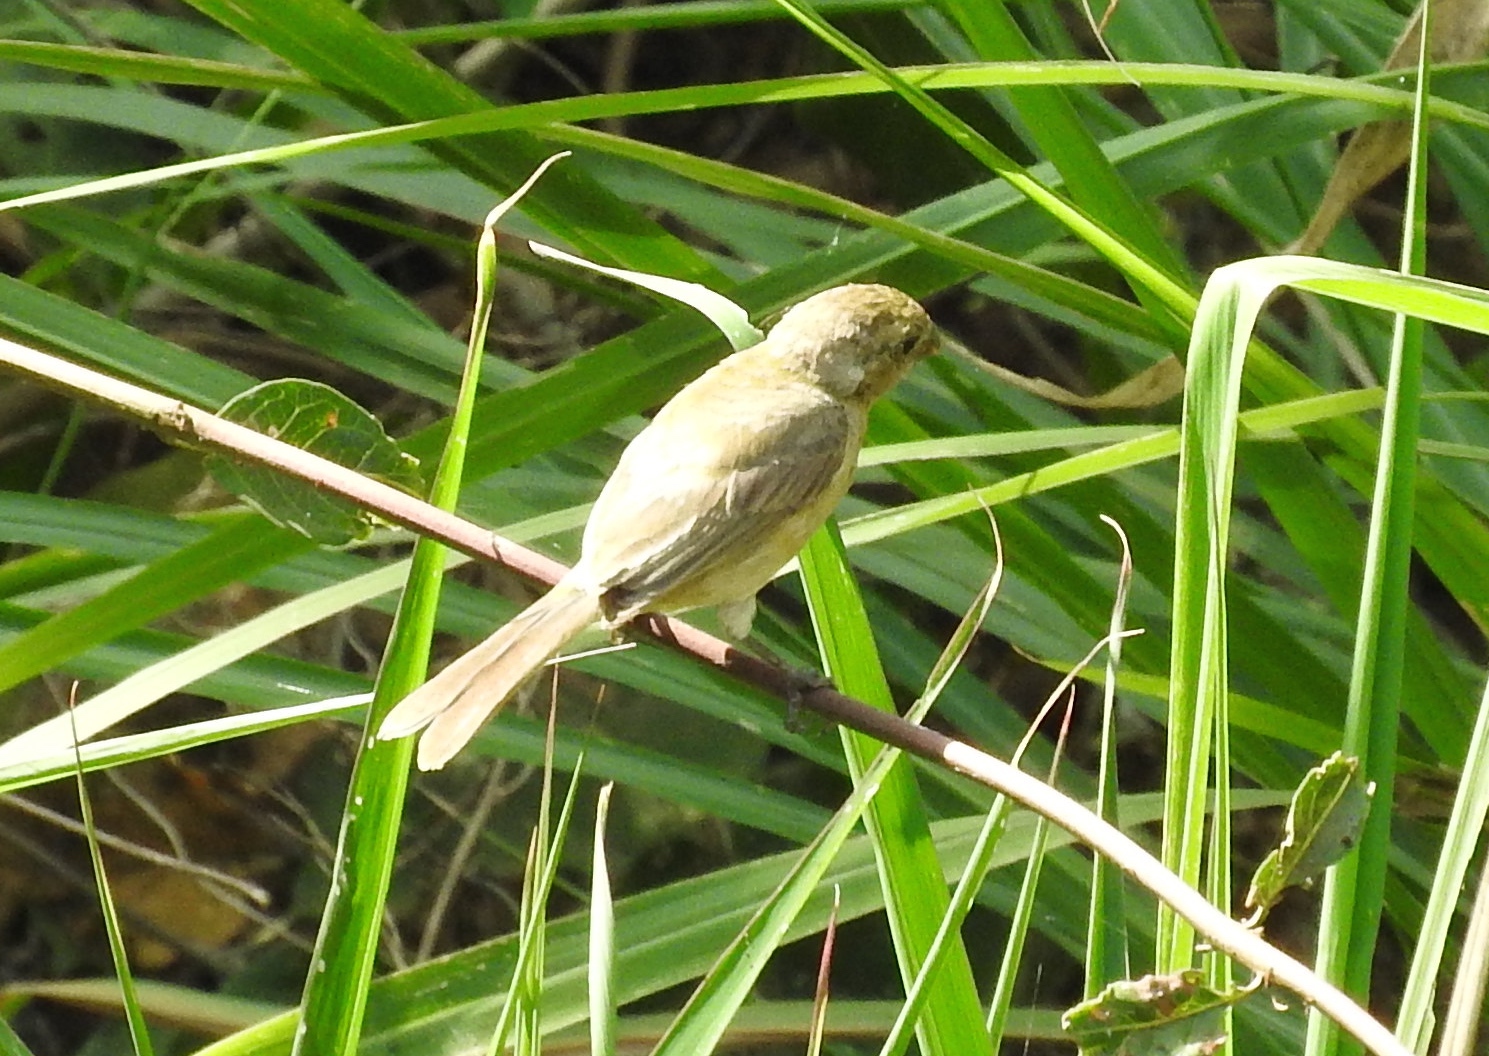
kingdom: Animalia
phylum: Chordata
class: Aves
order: Passeriformes
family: Thraupidae
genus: Sporophila
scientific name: Sporophila torqueola
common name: White-collared seedeater
